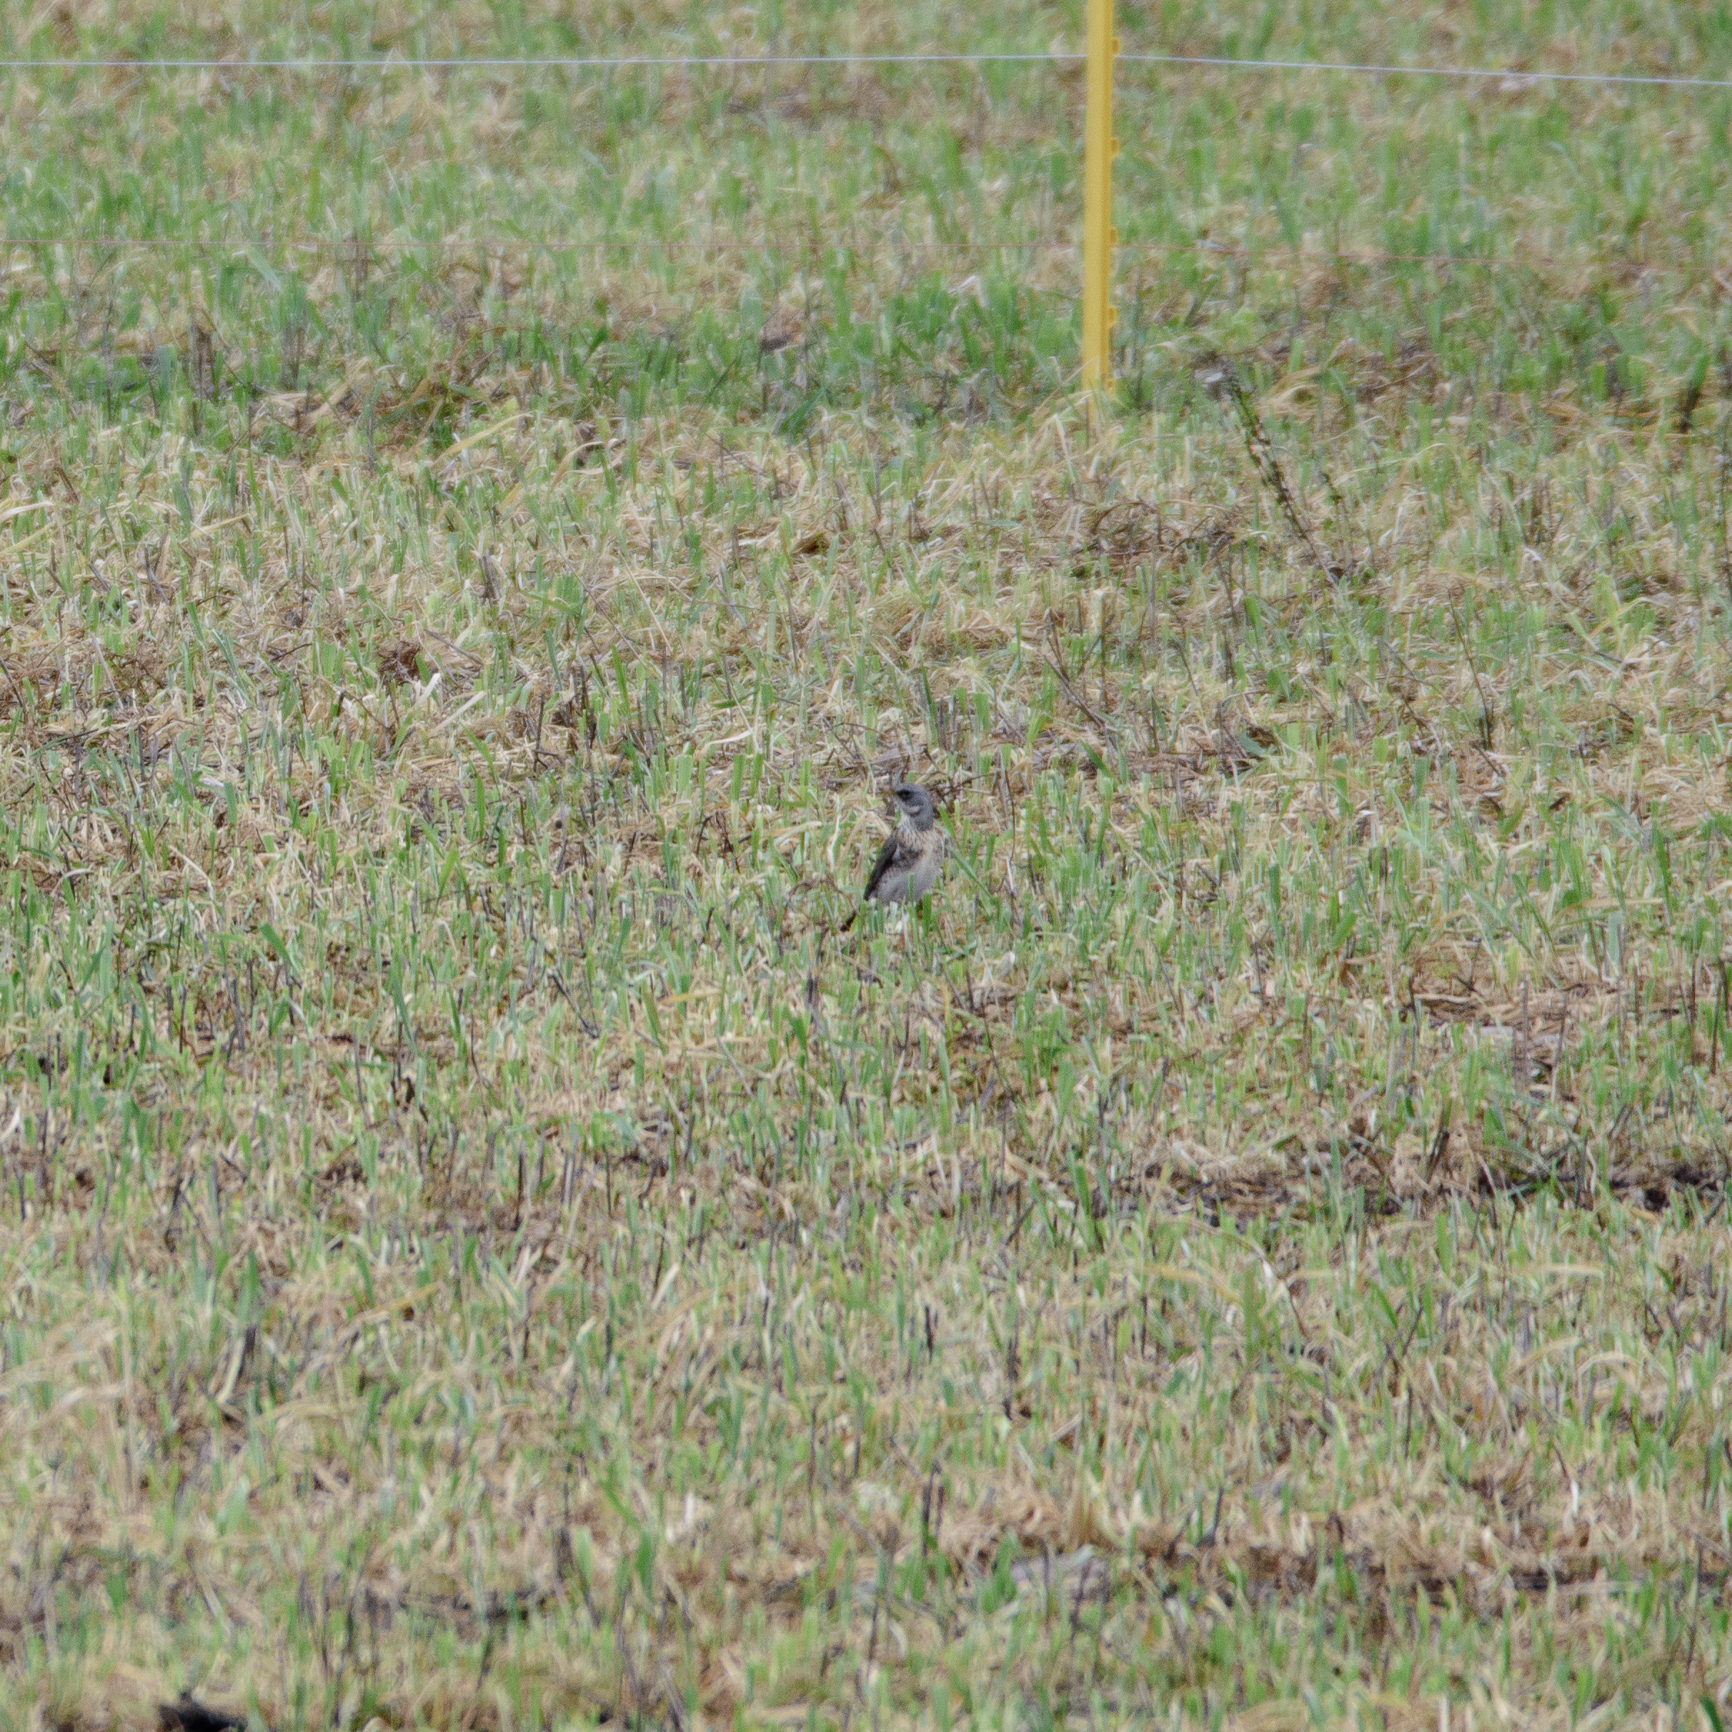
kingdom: Animalia
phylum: Chordata
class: Aves
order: Passeriformes
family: Turdidae
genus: Turdus
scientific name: Turdus pilaris
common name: Fieldfare
